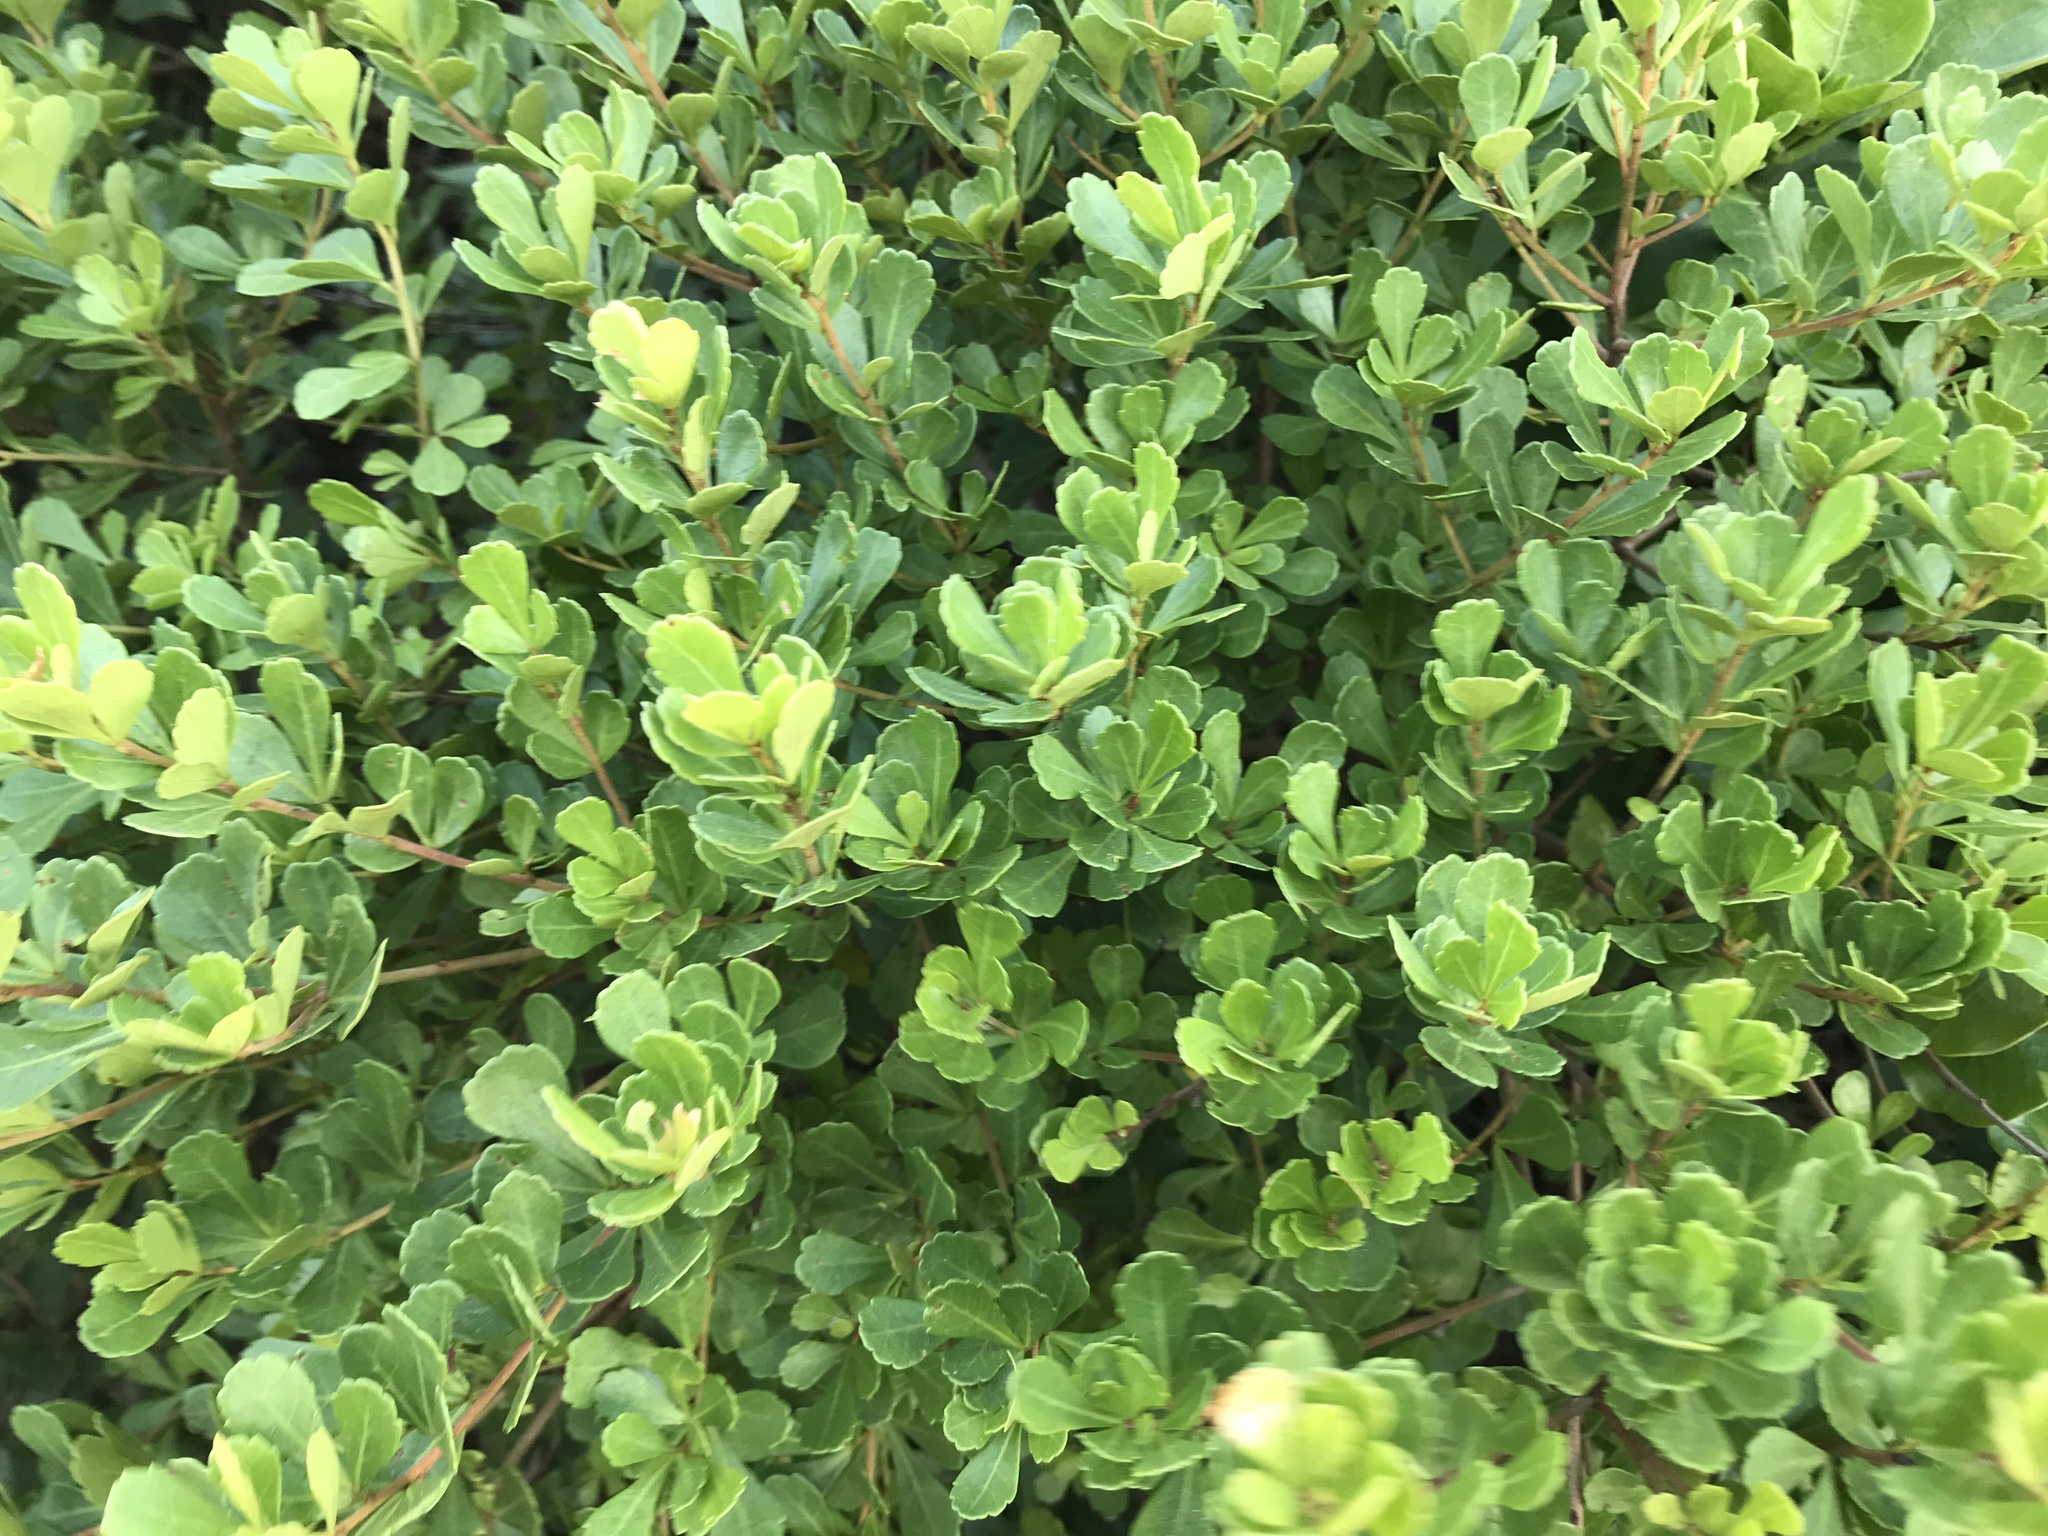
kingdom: Plantae
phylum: Tracheophyta
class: Magnoliopsida
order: Sapindales
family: Anacardiaceae
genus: Searsia
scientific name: Searsia crenata
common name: Crowberry
